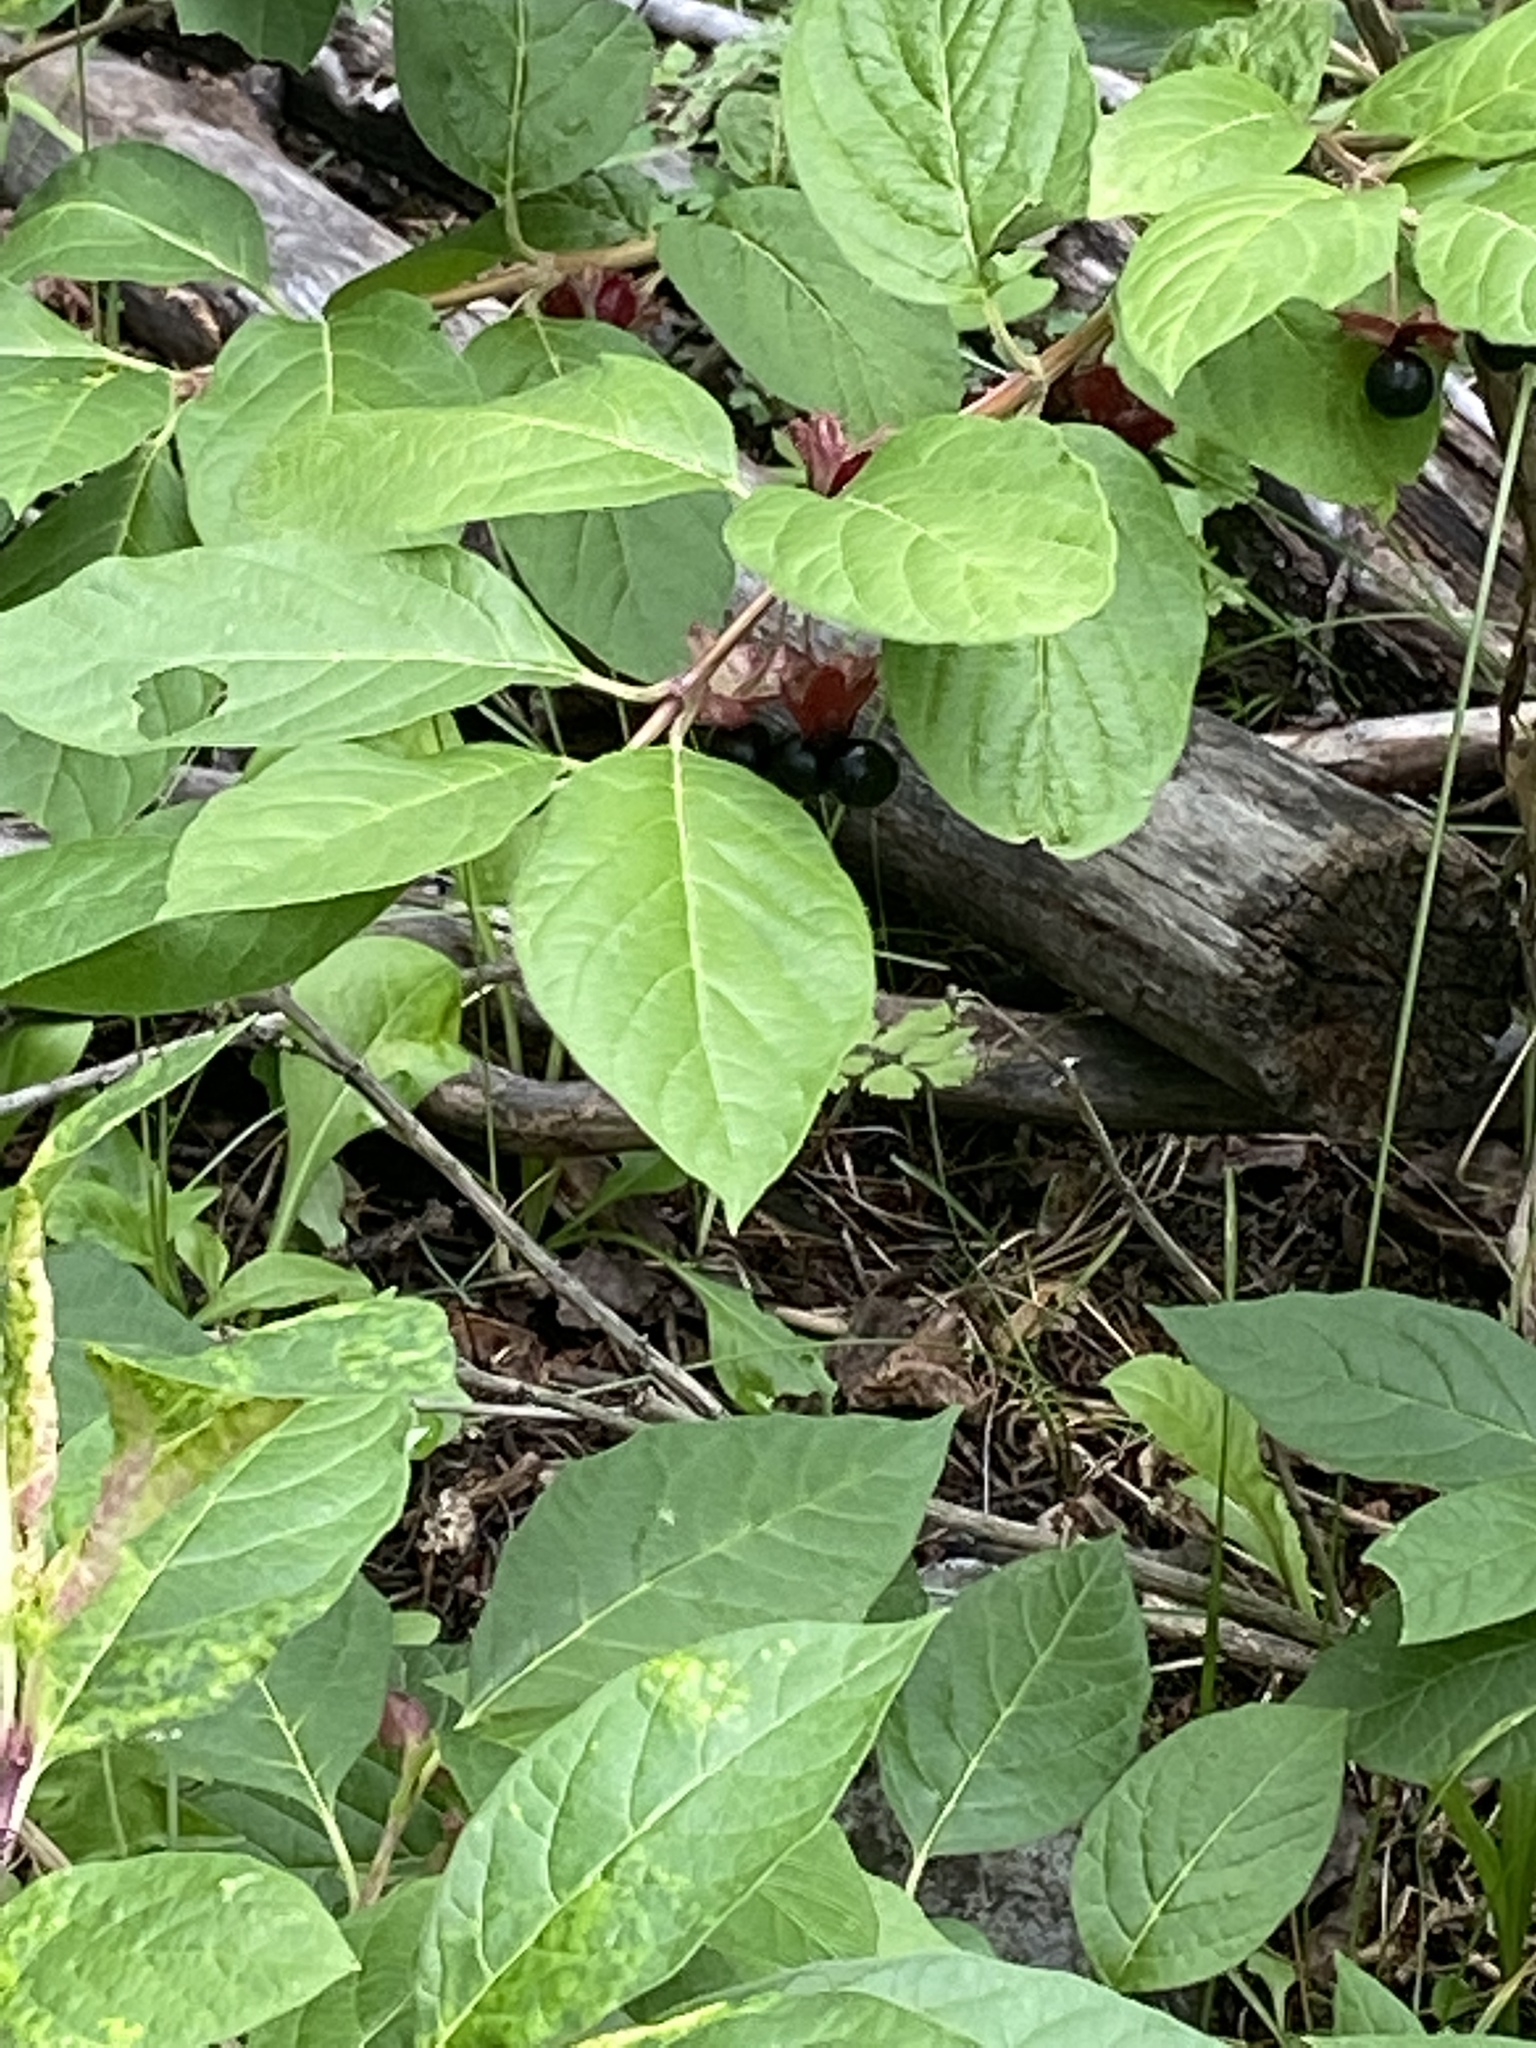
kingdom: Plantae
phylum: Tracheophyta
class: Magnoliopsida
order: Dipsacales
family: Caprifoliaceae
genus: Lonicera
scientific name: Lonicera involucrata
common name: Californian honeysuckle
